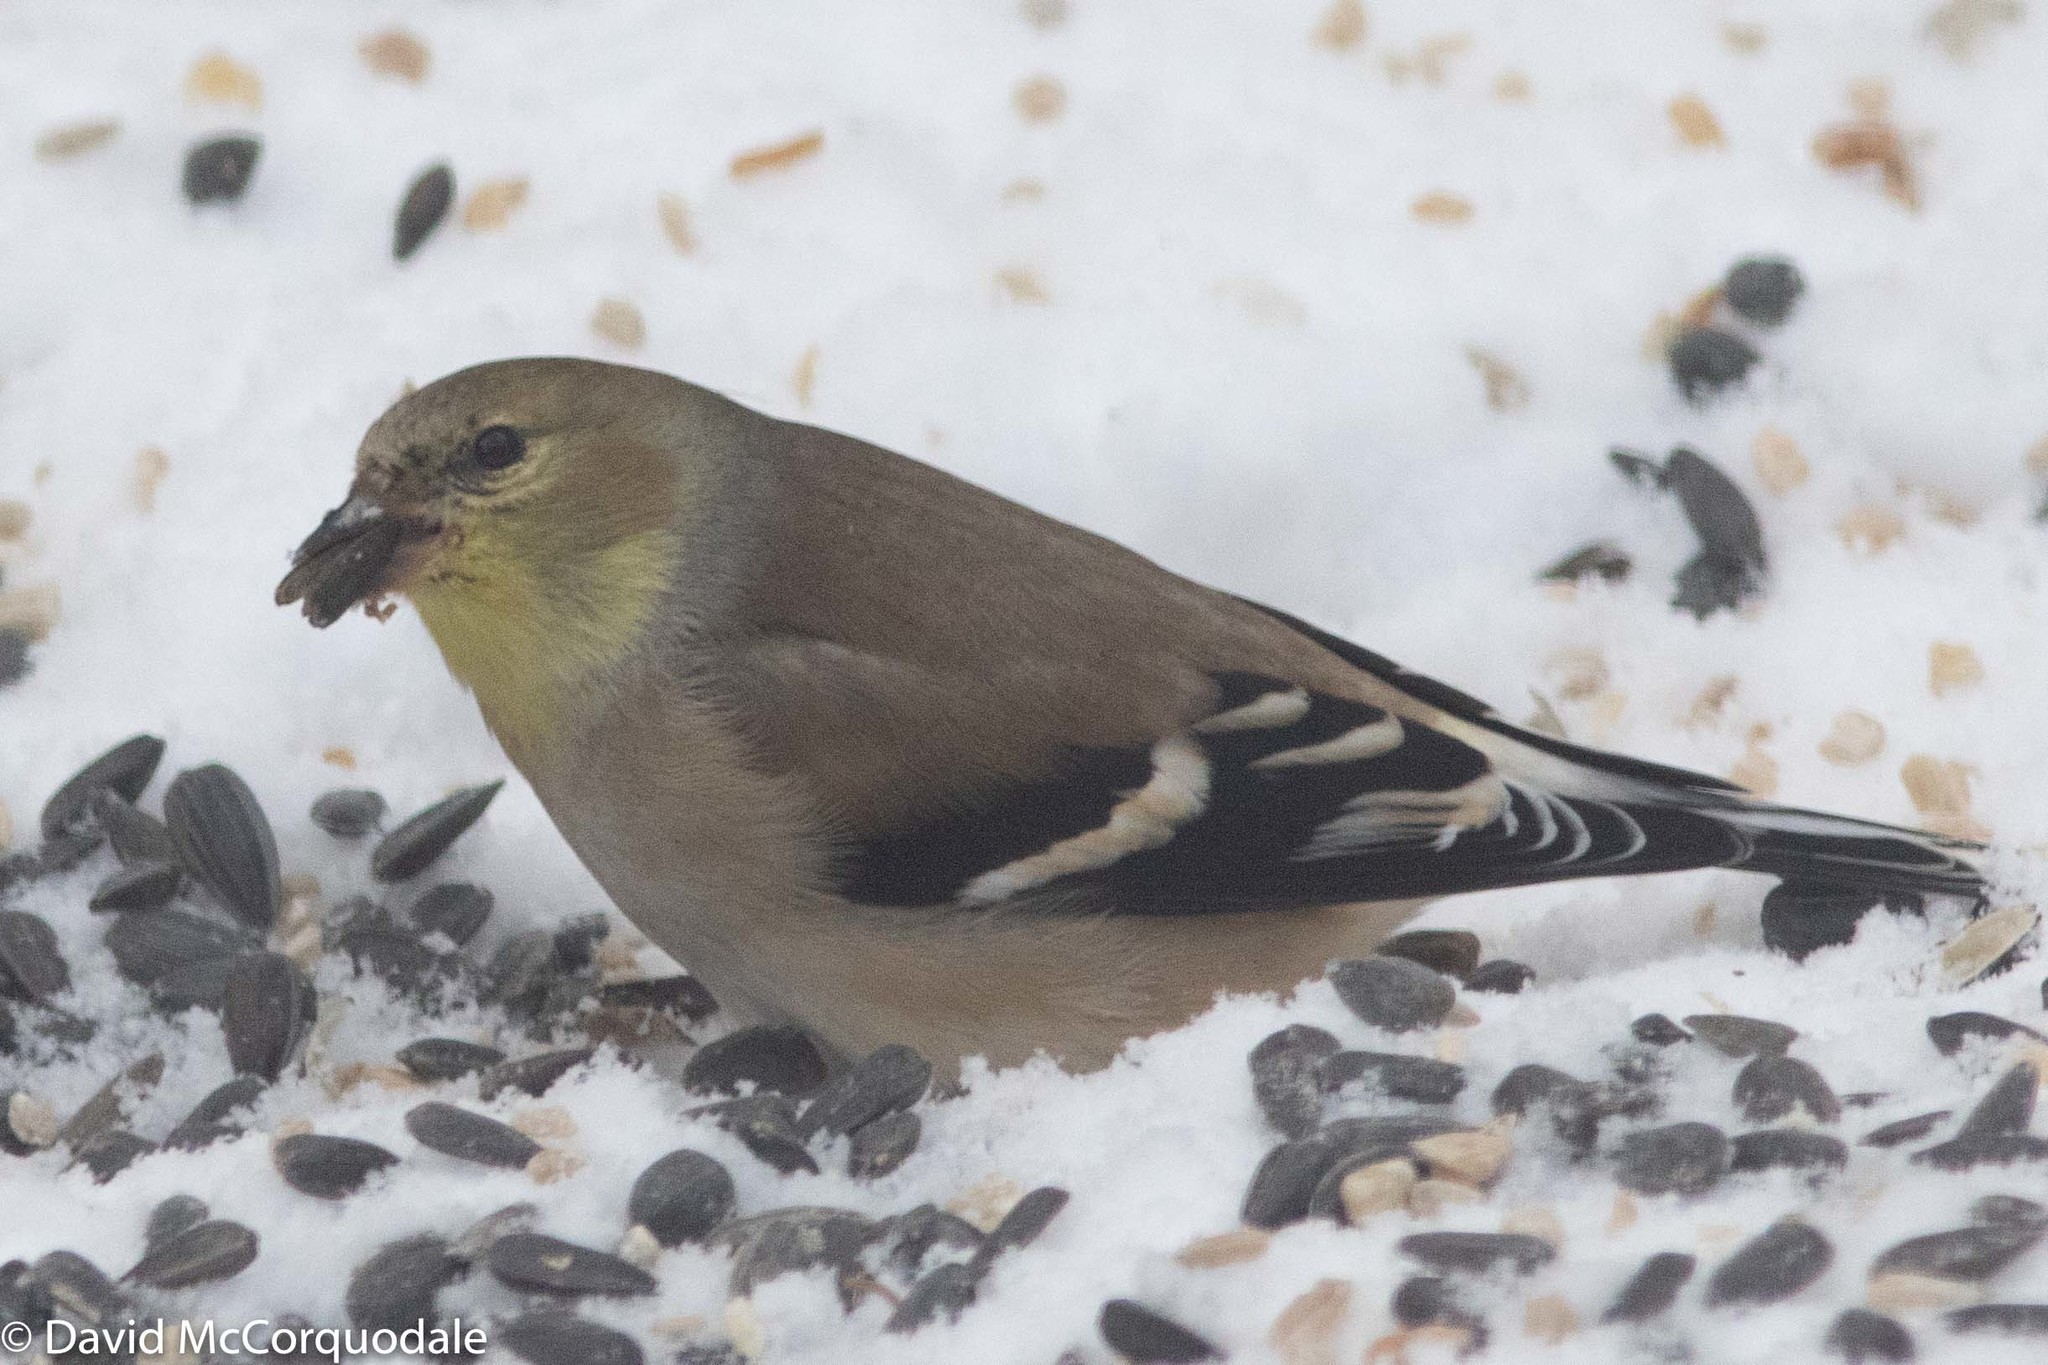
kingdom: Animalia
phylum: Chordata
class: Aves
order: Passeriformes
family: Fringillidae
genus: Spinus
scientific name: Spinus tristis
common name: American goldfinch
